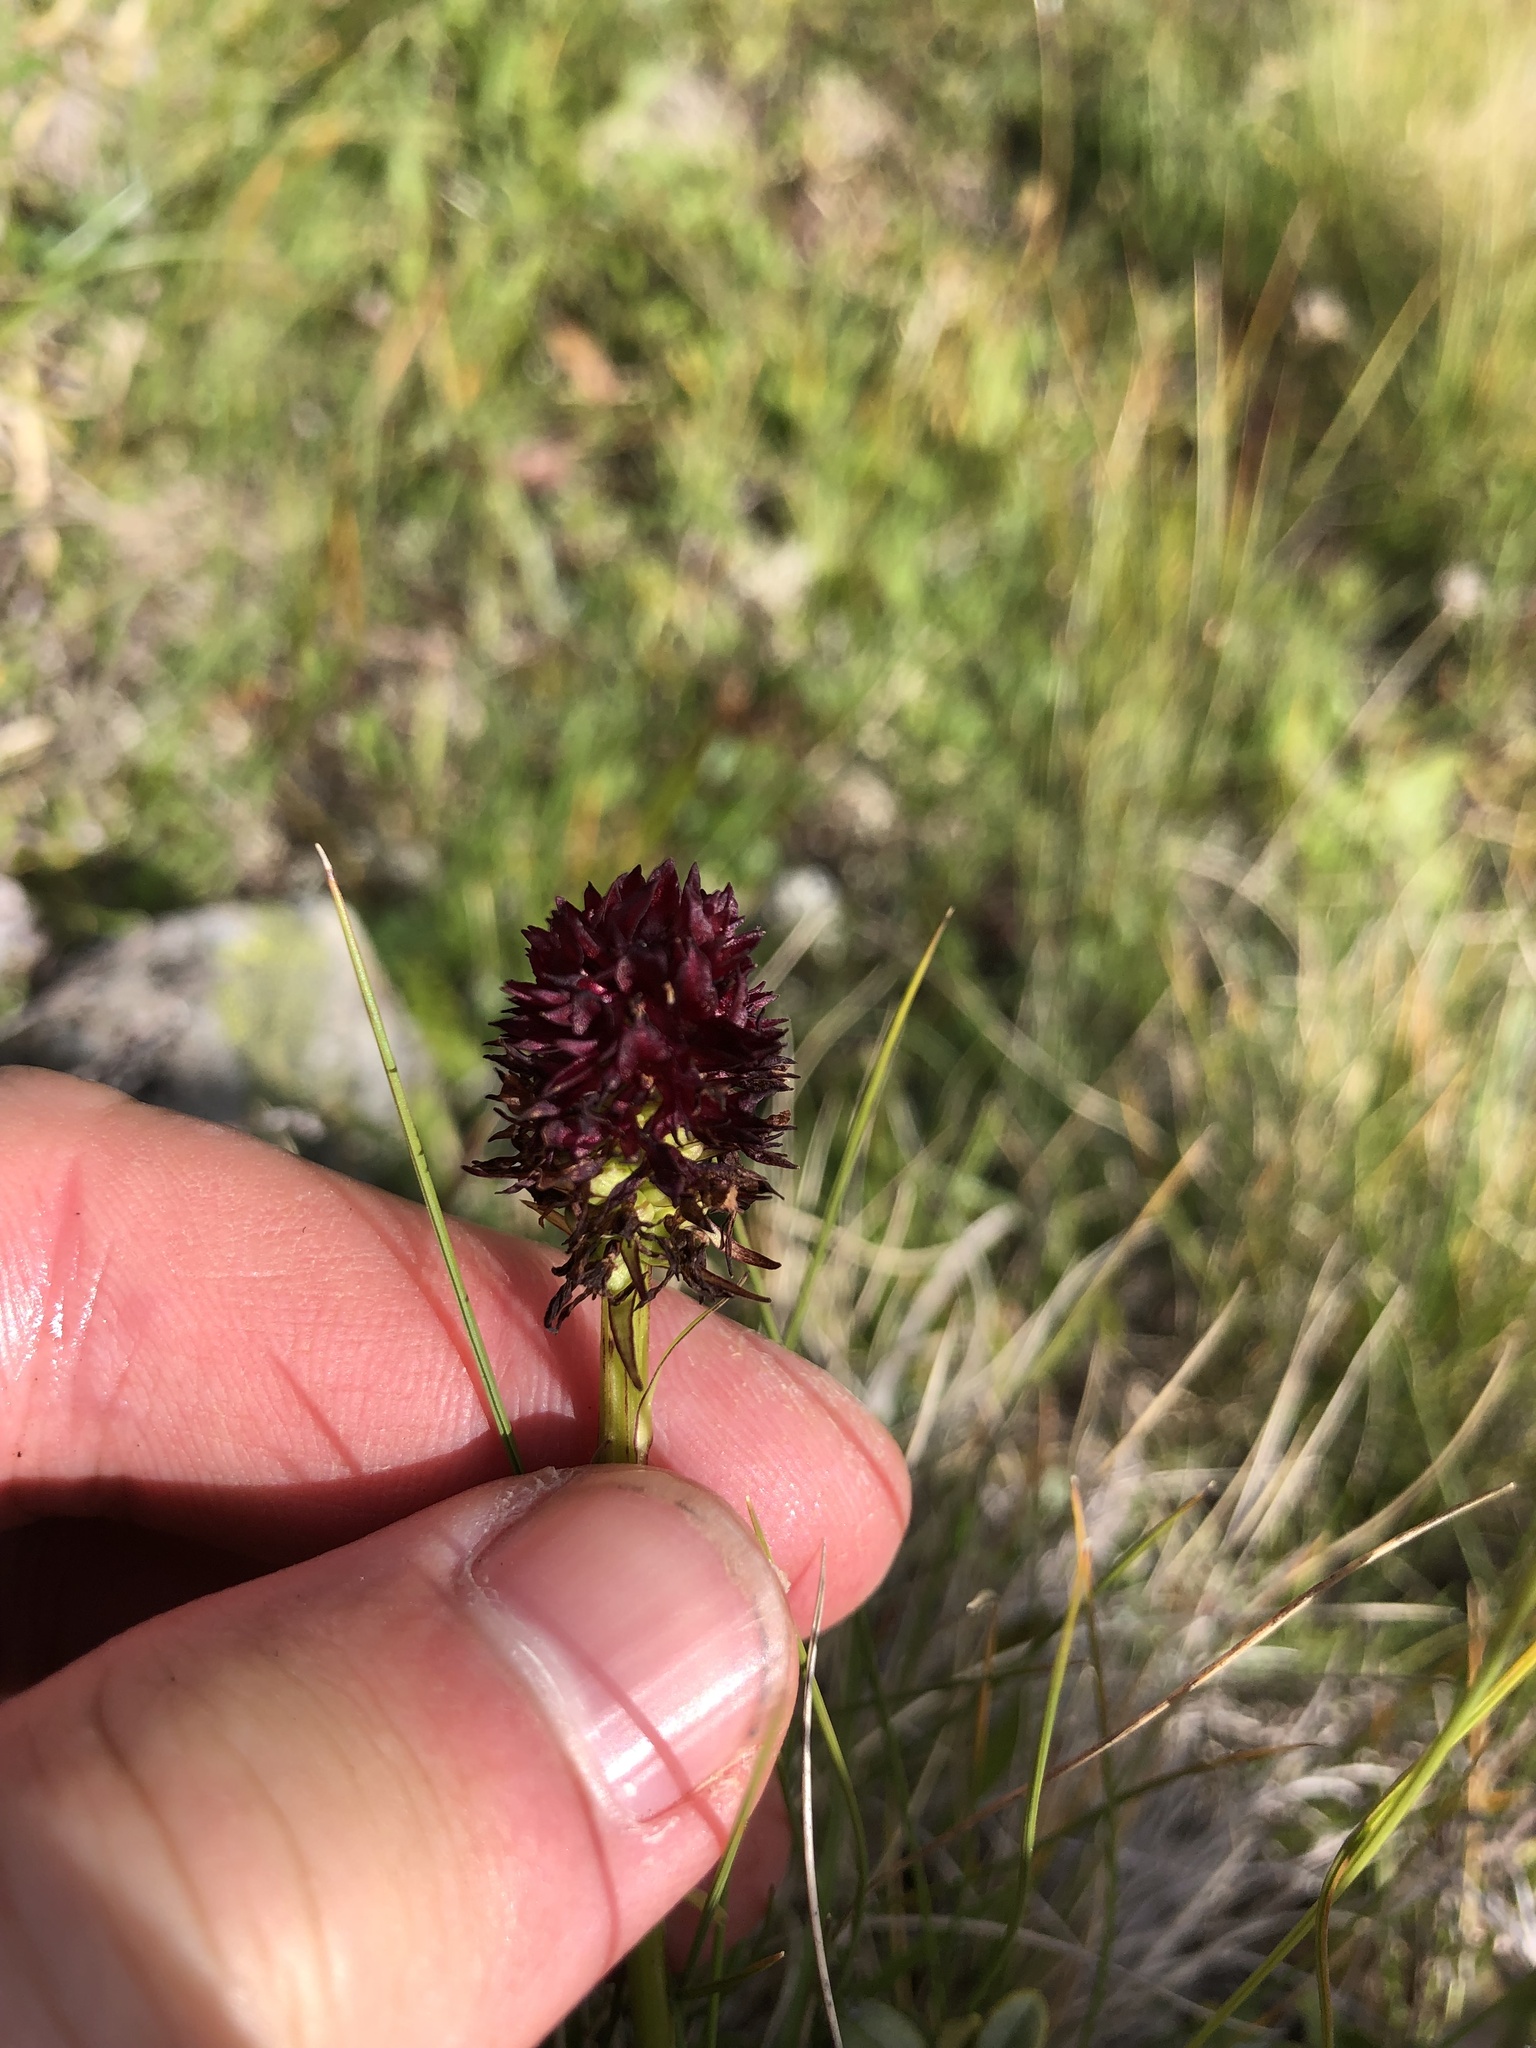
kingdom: Plantae
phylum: Tracheophyta
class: Liliopsida
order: Asparagales
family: Orchidaceae
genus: Gymnadenia
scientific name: Gymnadenia rhellicani
